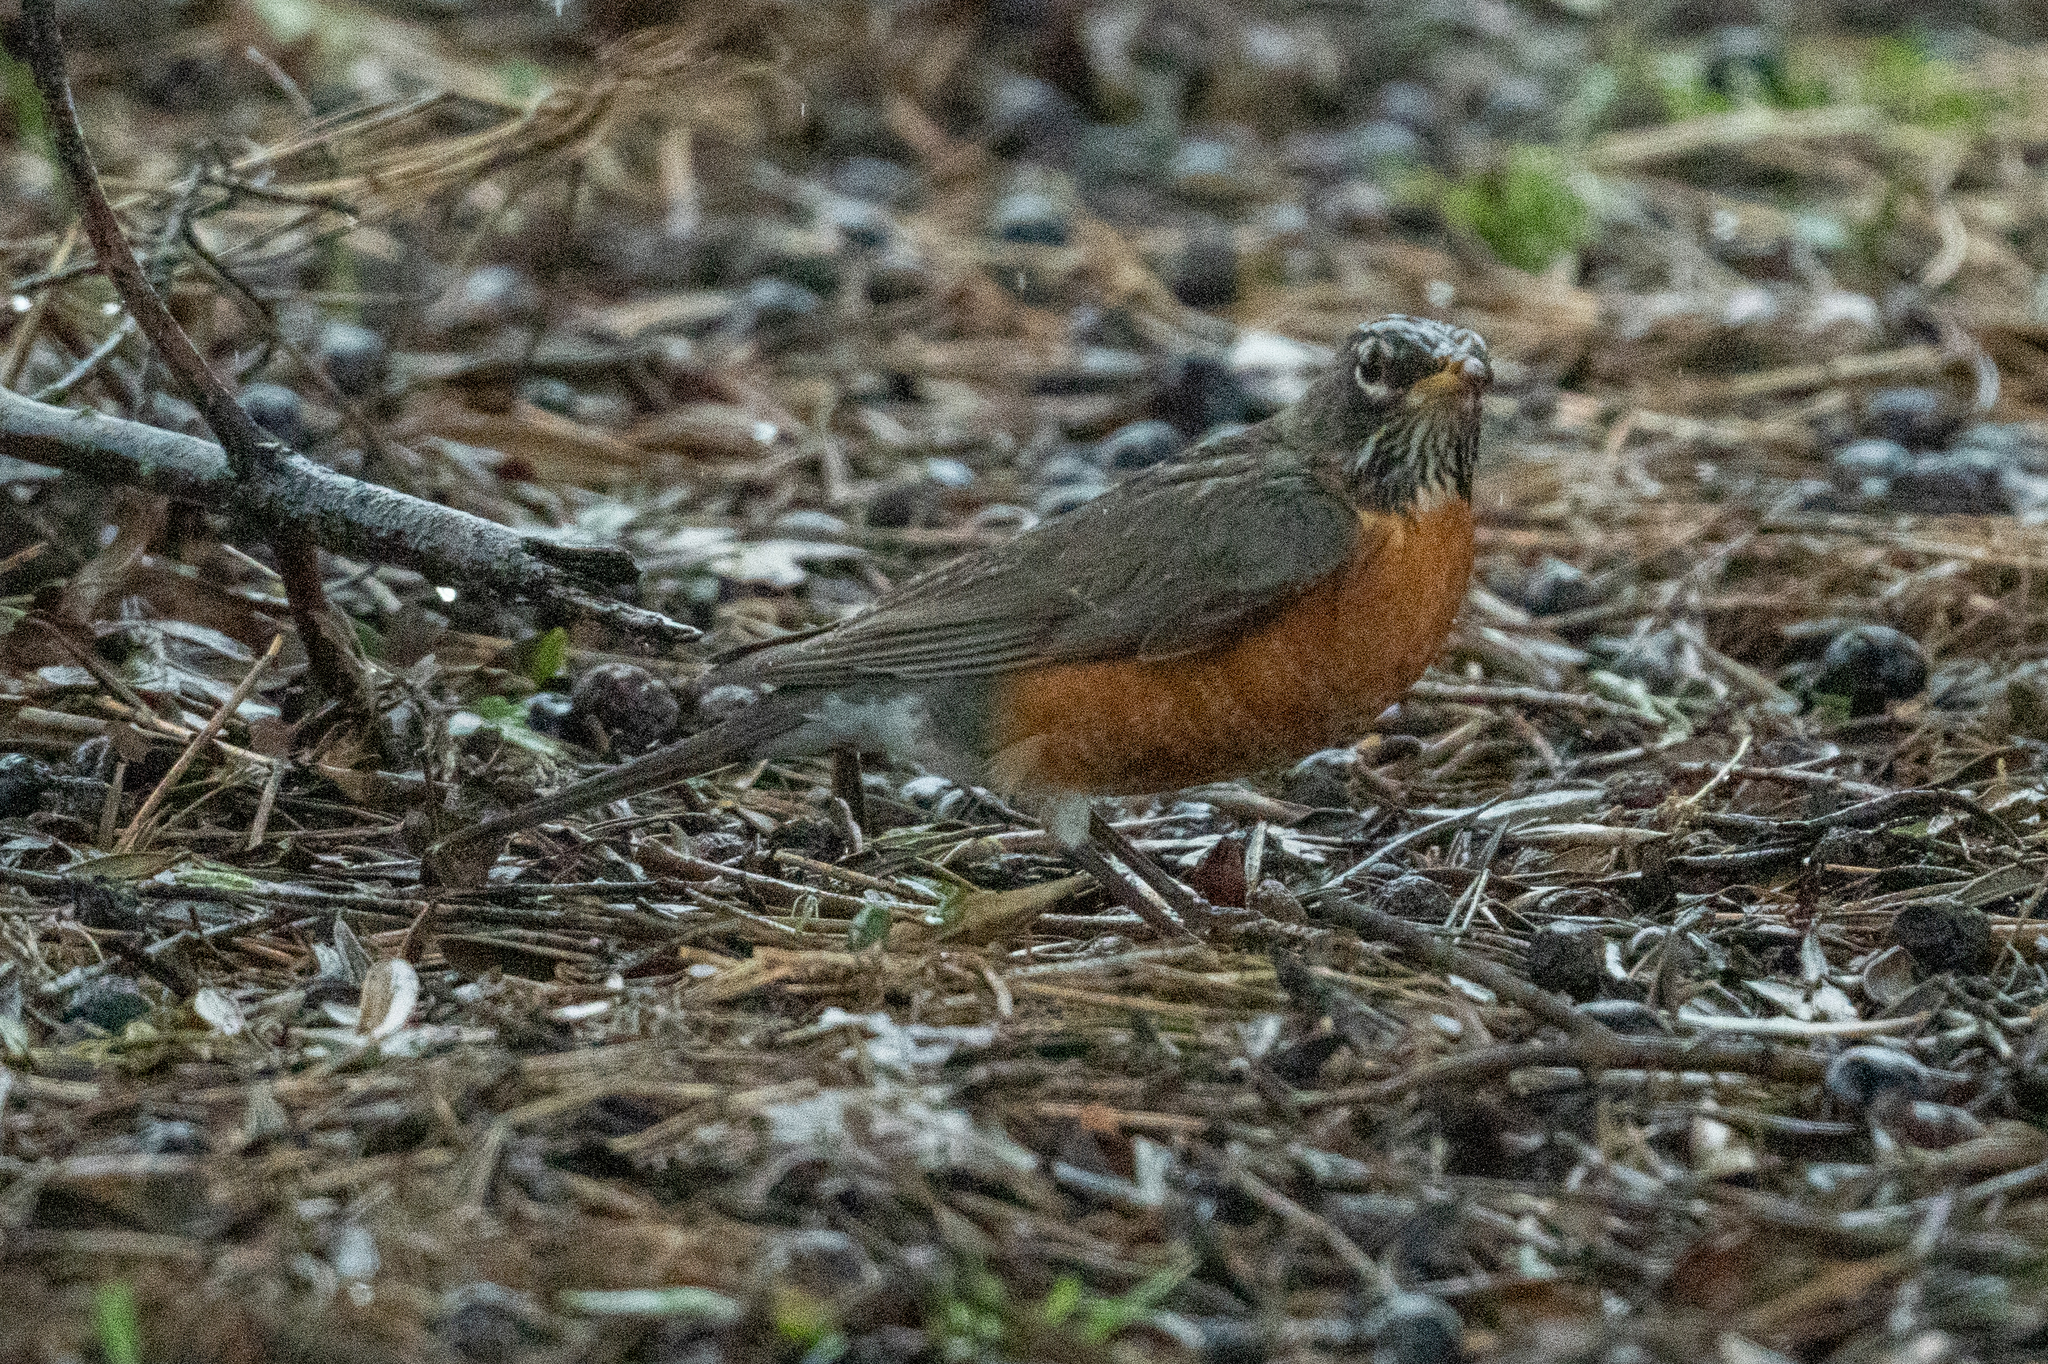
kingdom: Animalia
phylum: Chordata
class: Aves
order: Passeriformes
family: Turdidae
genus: Turdus
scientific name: Turdus migratorius
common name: American robin
